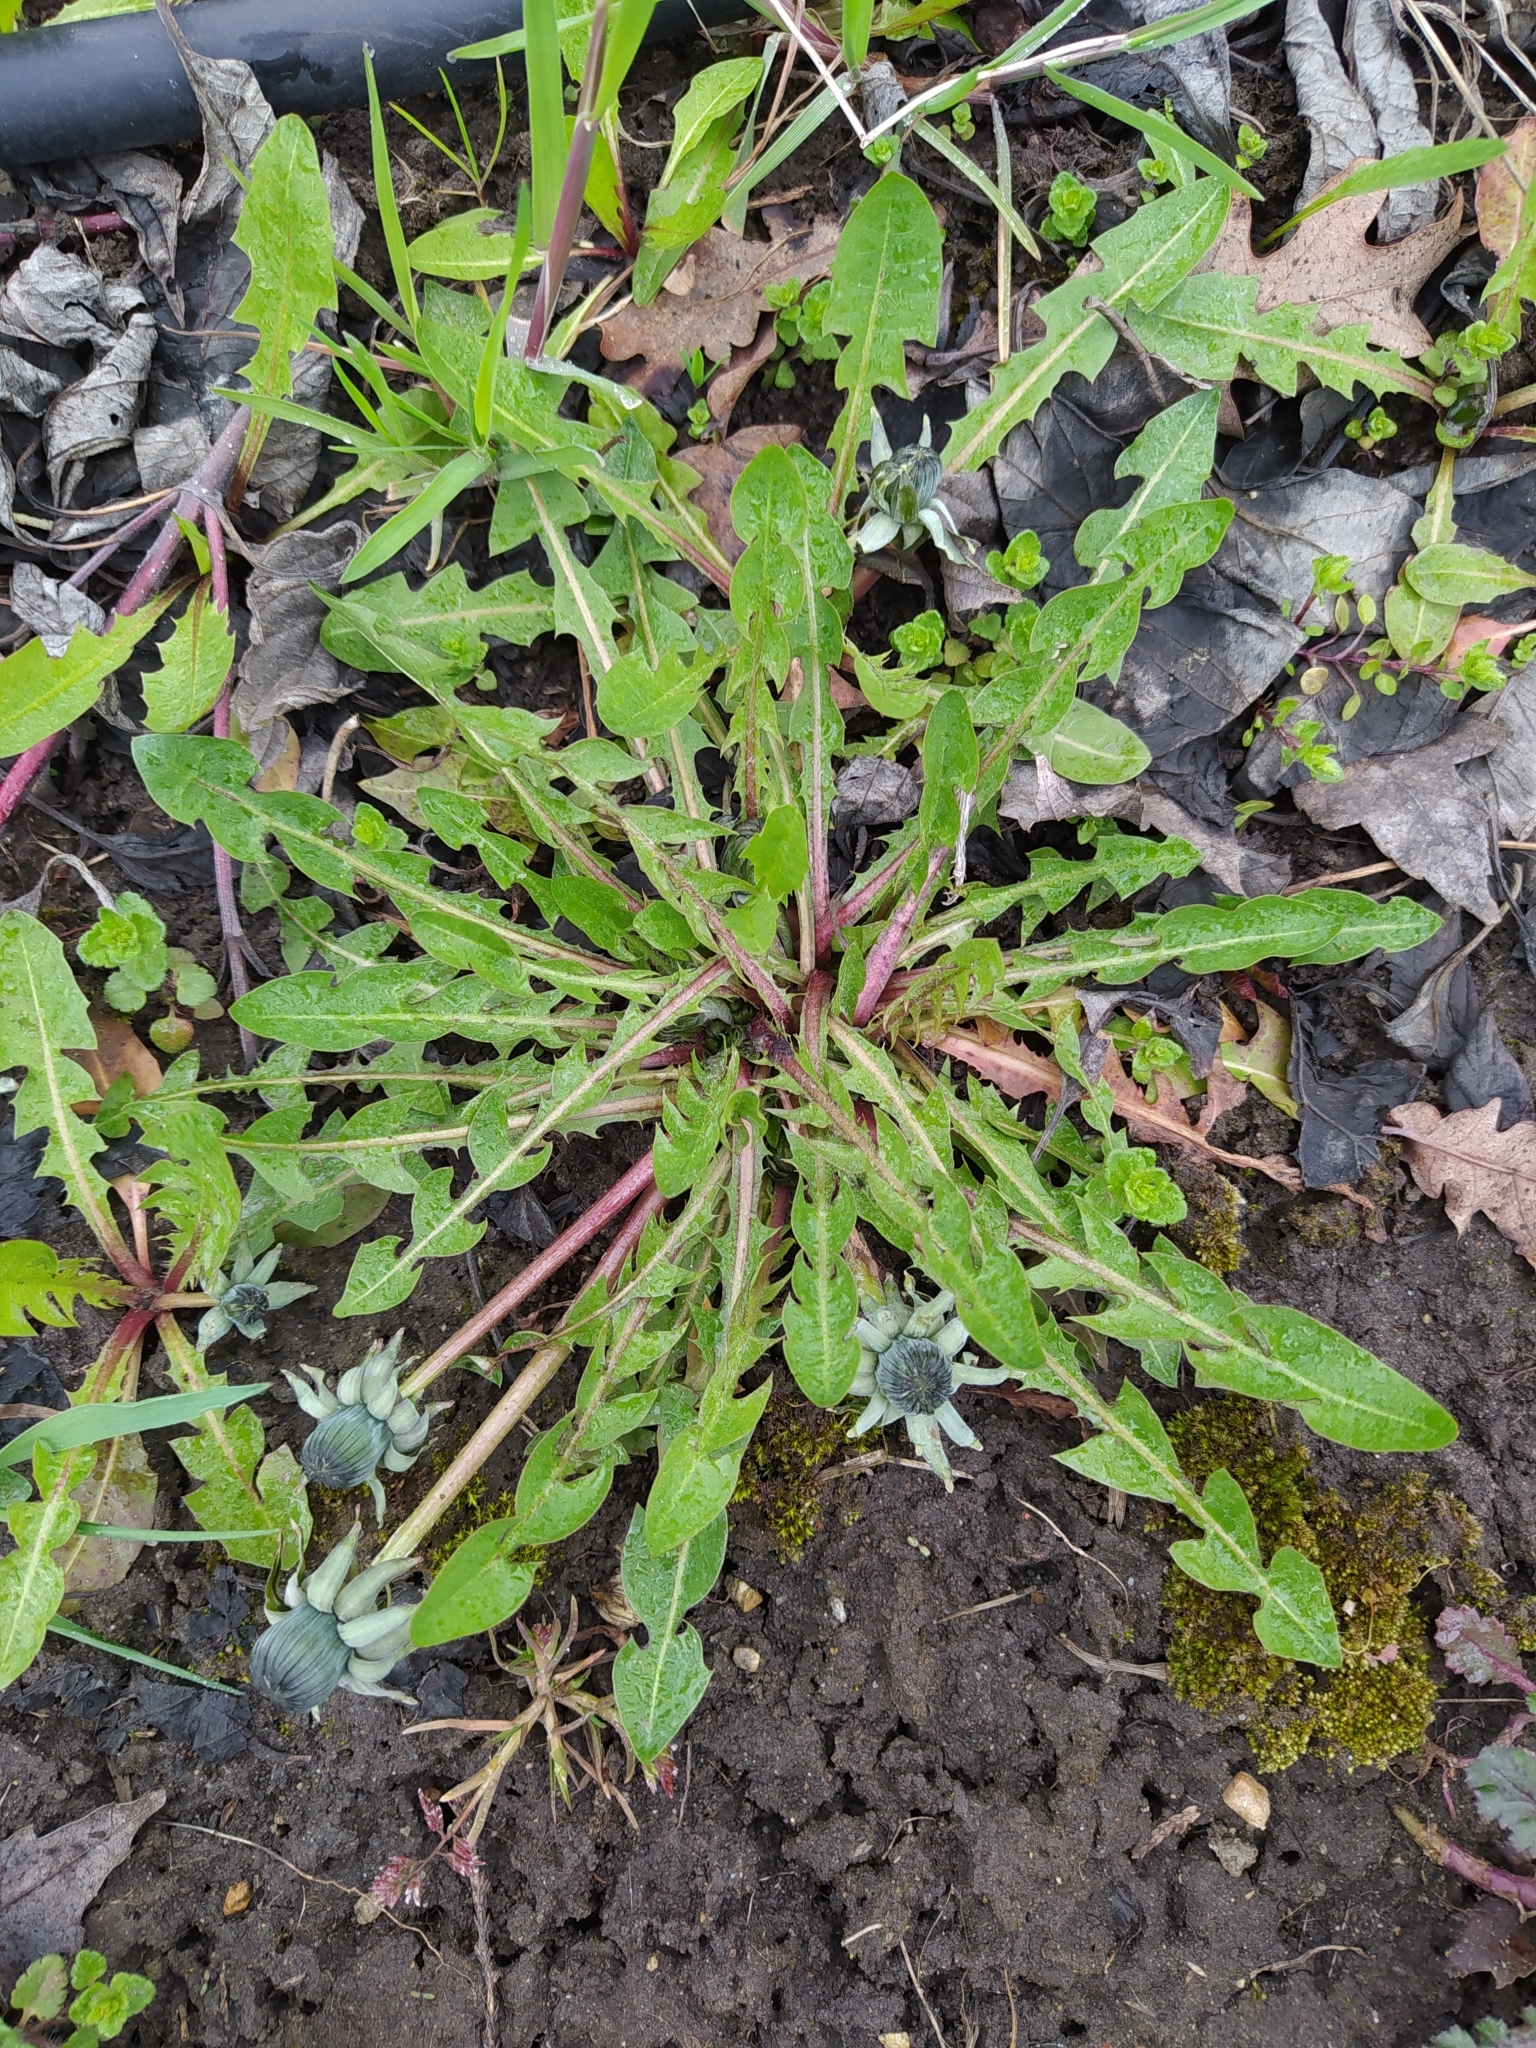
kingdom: Plantae
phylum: Tracheophyta
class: Magnoliopsida
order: Asterales
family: Asteraceae
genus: Taraxacum
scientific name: Taraxacum officinale
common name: Common dandelion
